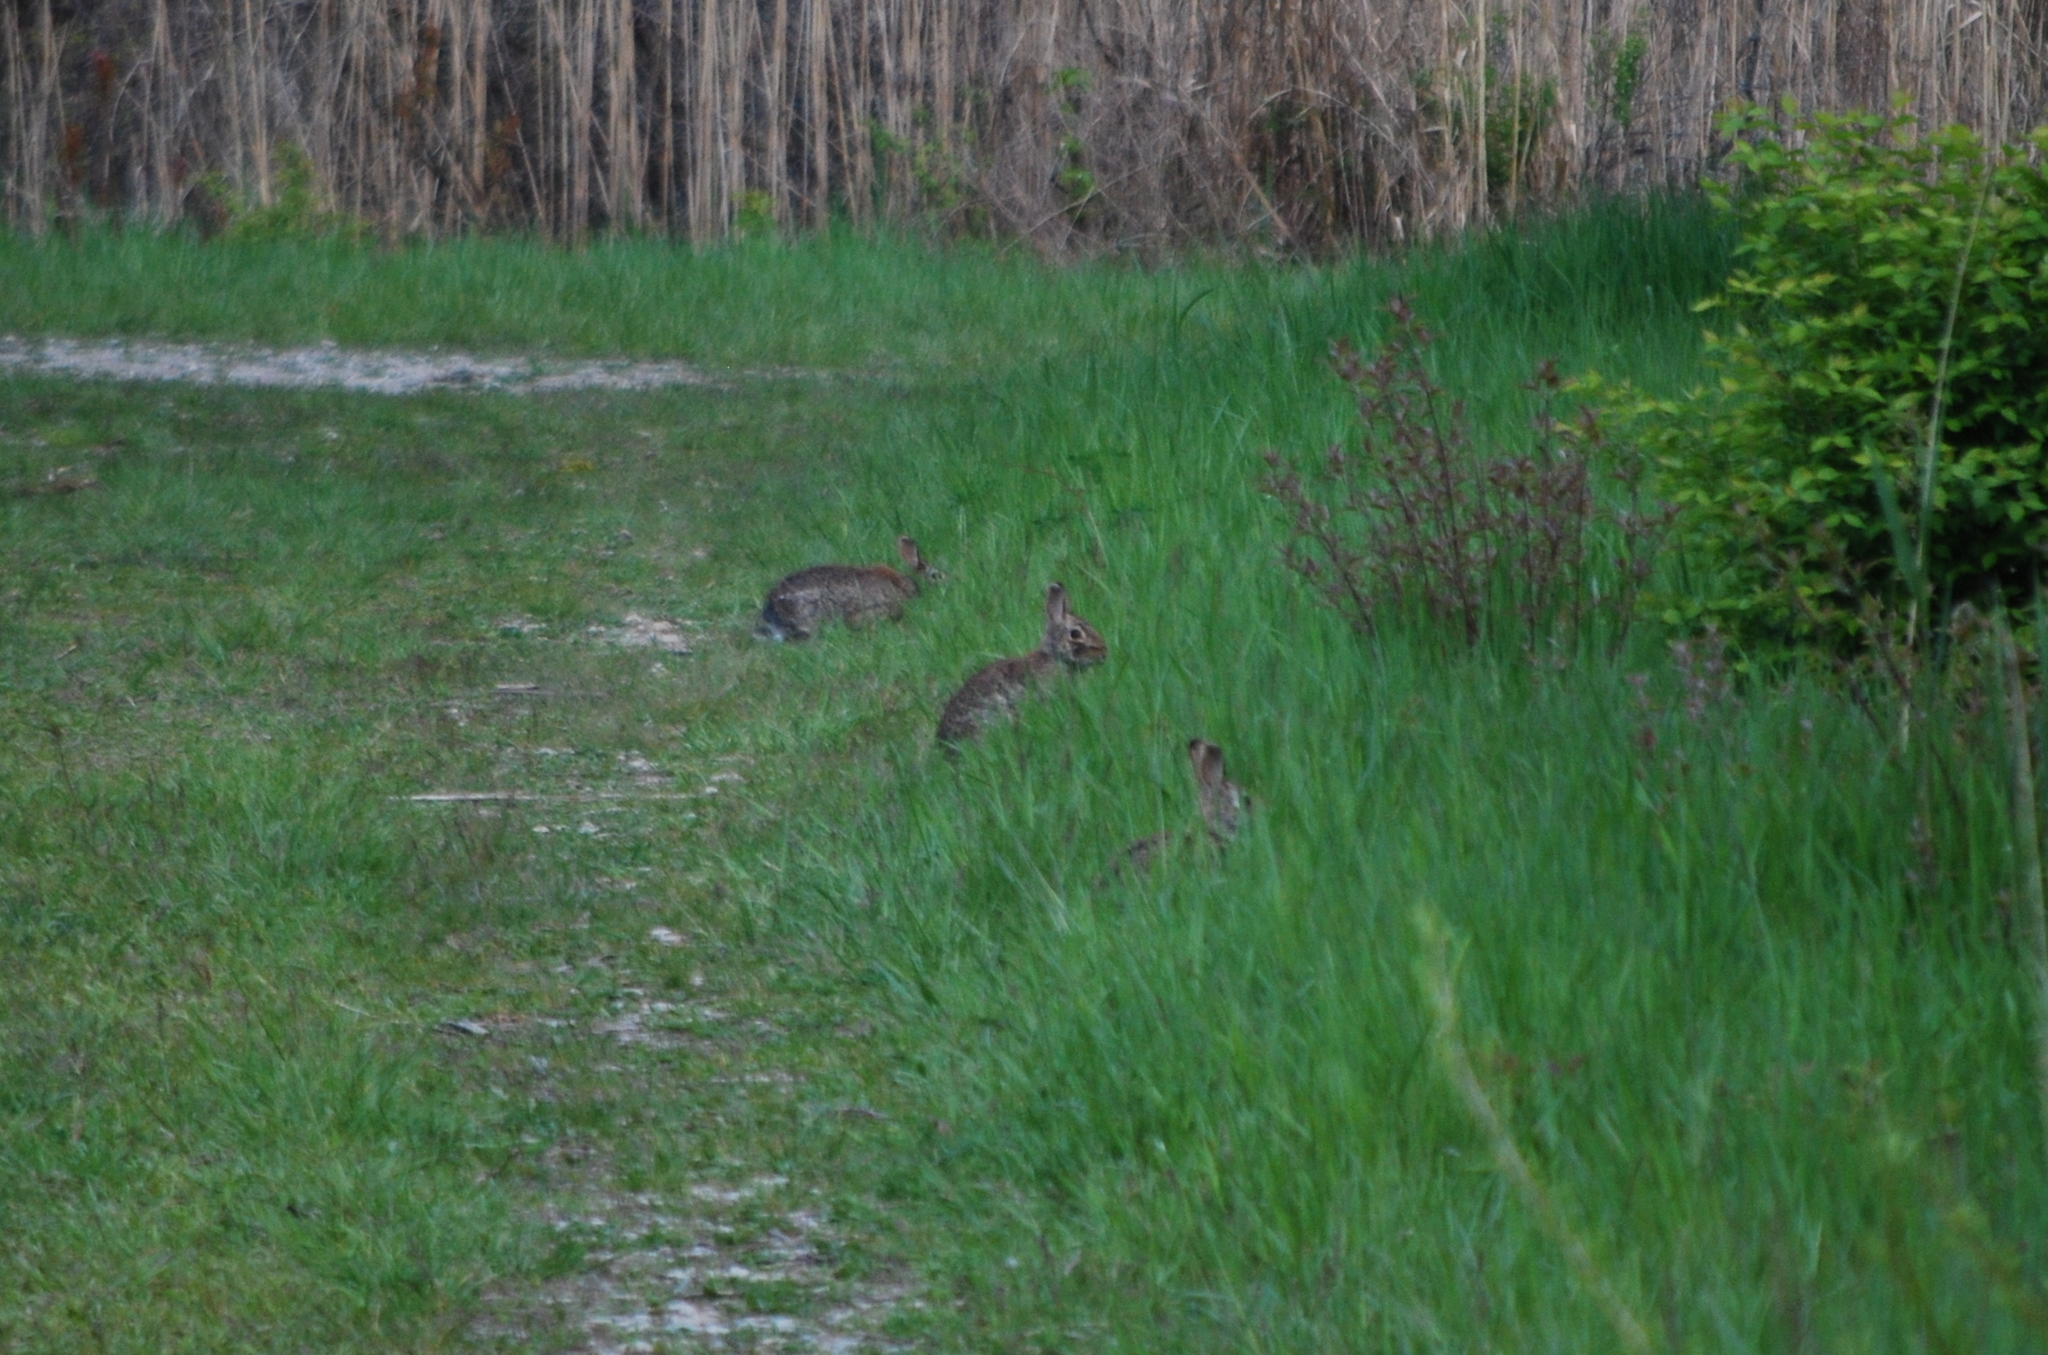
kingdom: Animalia
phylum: Chordata
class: Mammalia
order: Lagomorpha
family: Leporidae
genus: Sylvilagus
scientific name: Sylvilagus floridanus
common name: Eastern cottontail
